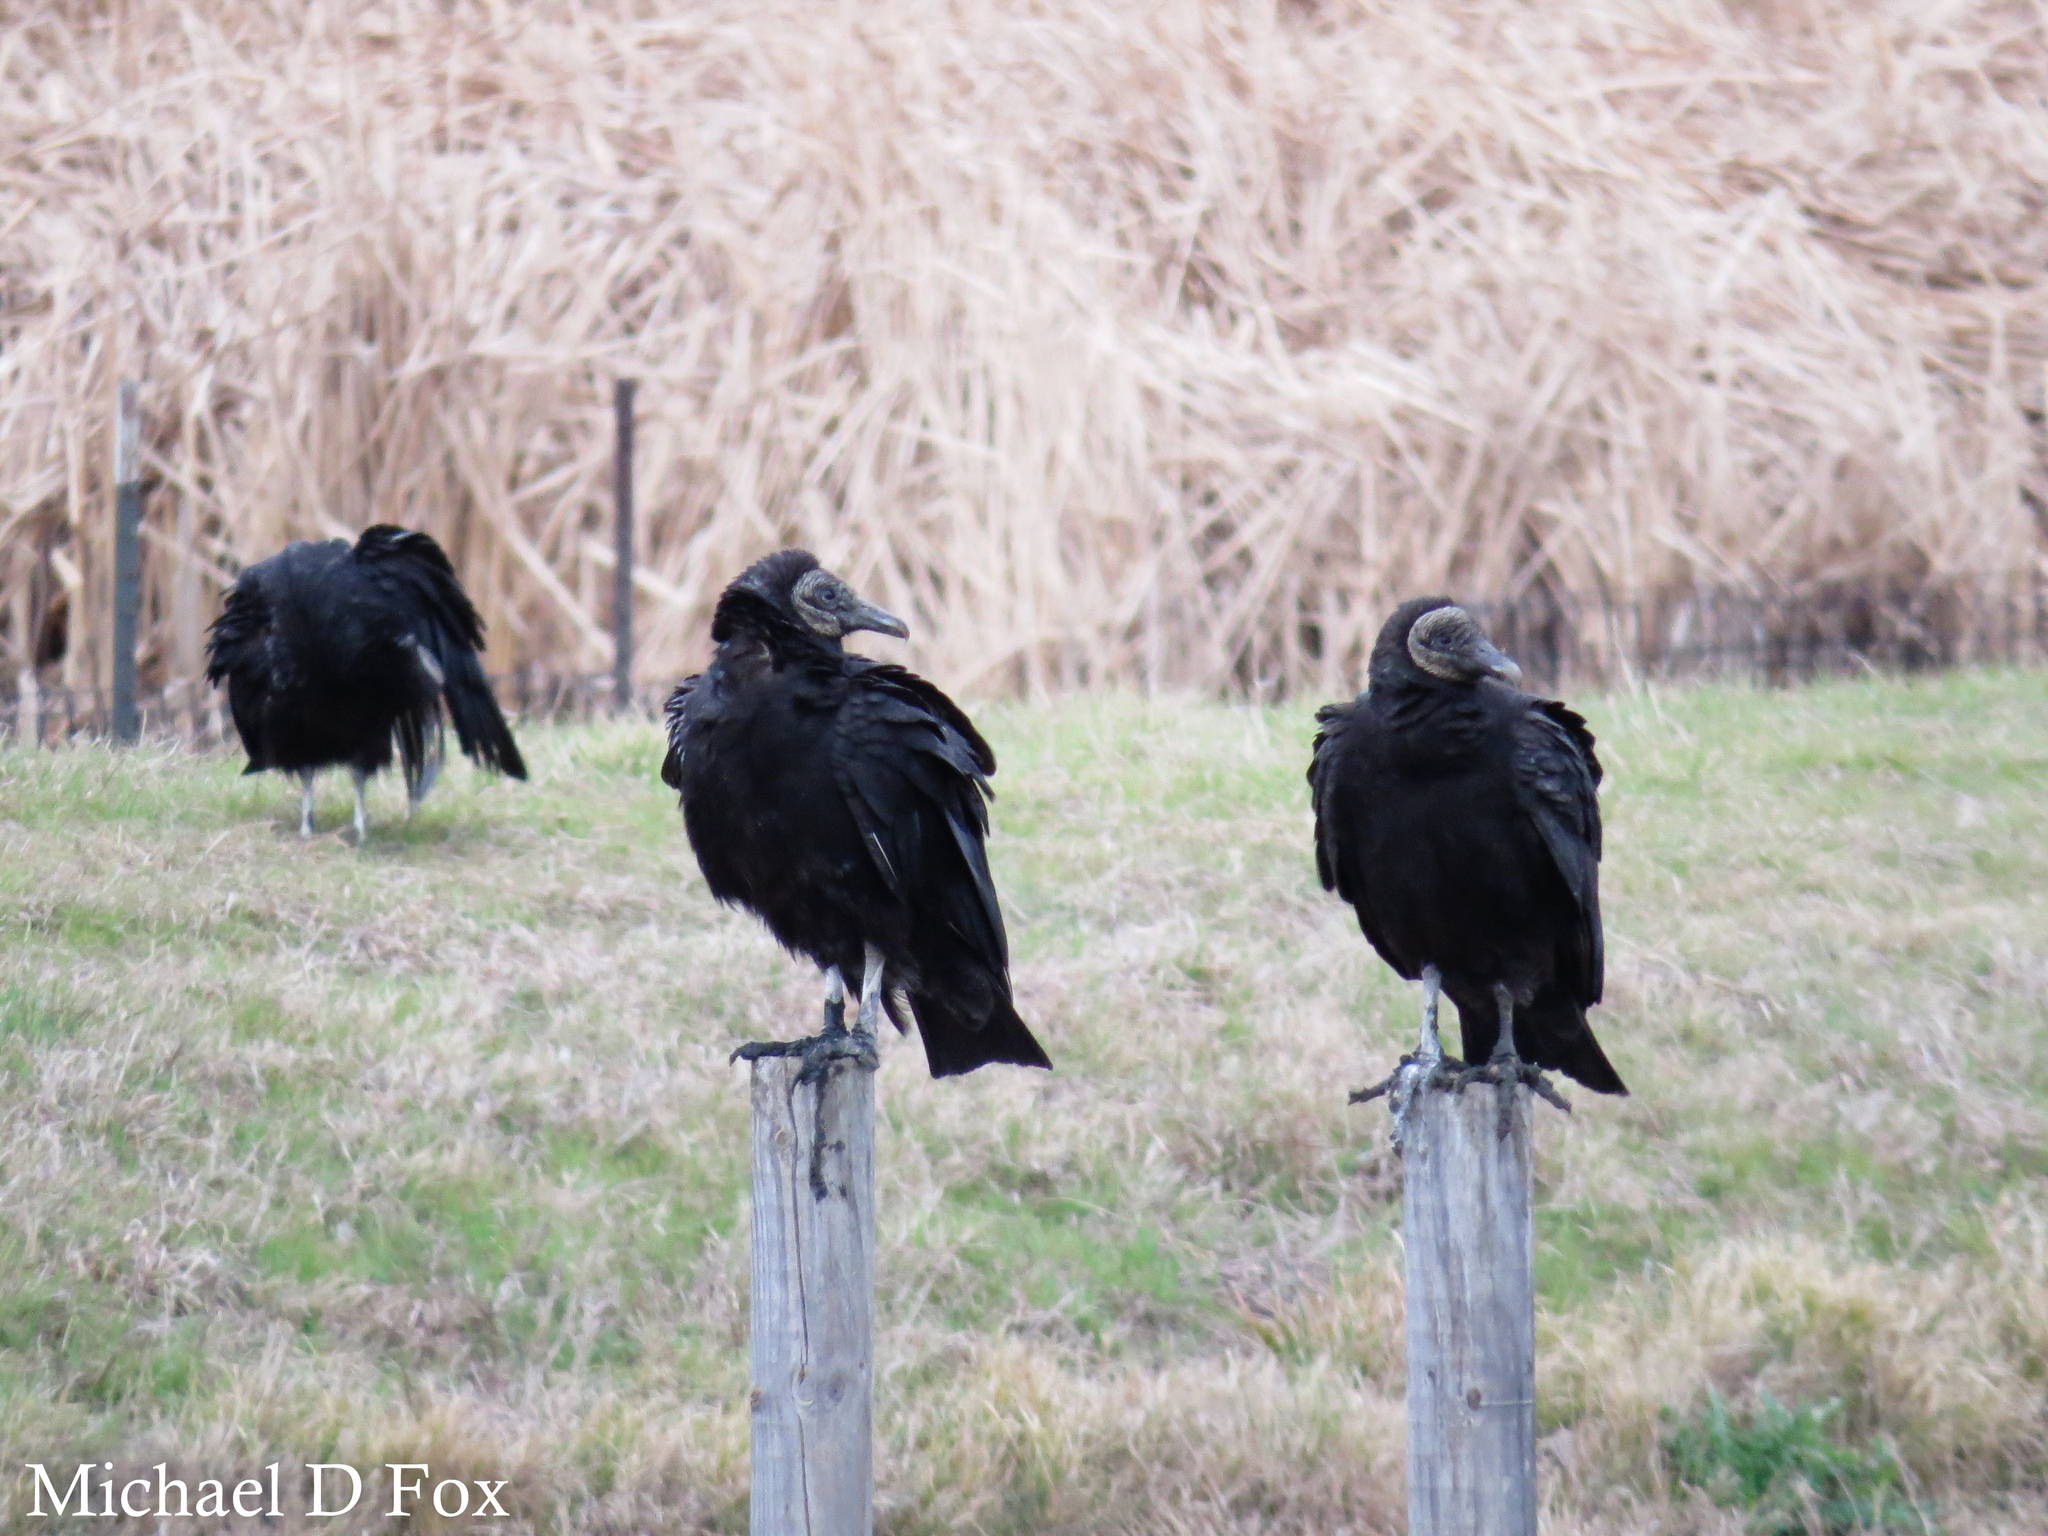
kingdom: Animalia
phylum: Chordata
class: Aves
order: Accipitriformes
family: Cathartidae
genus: Coragyps
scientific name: Coragyps atratus
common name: Black vulture
